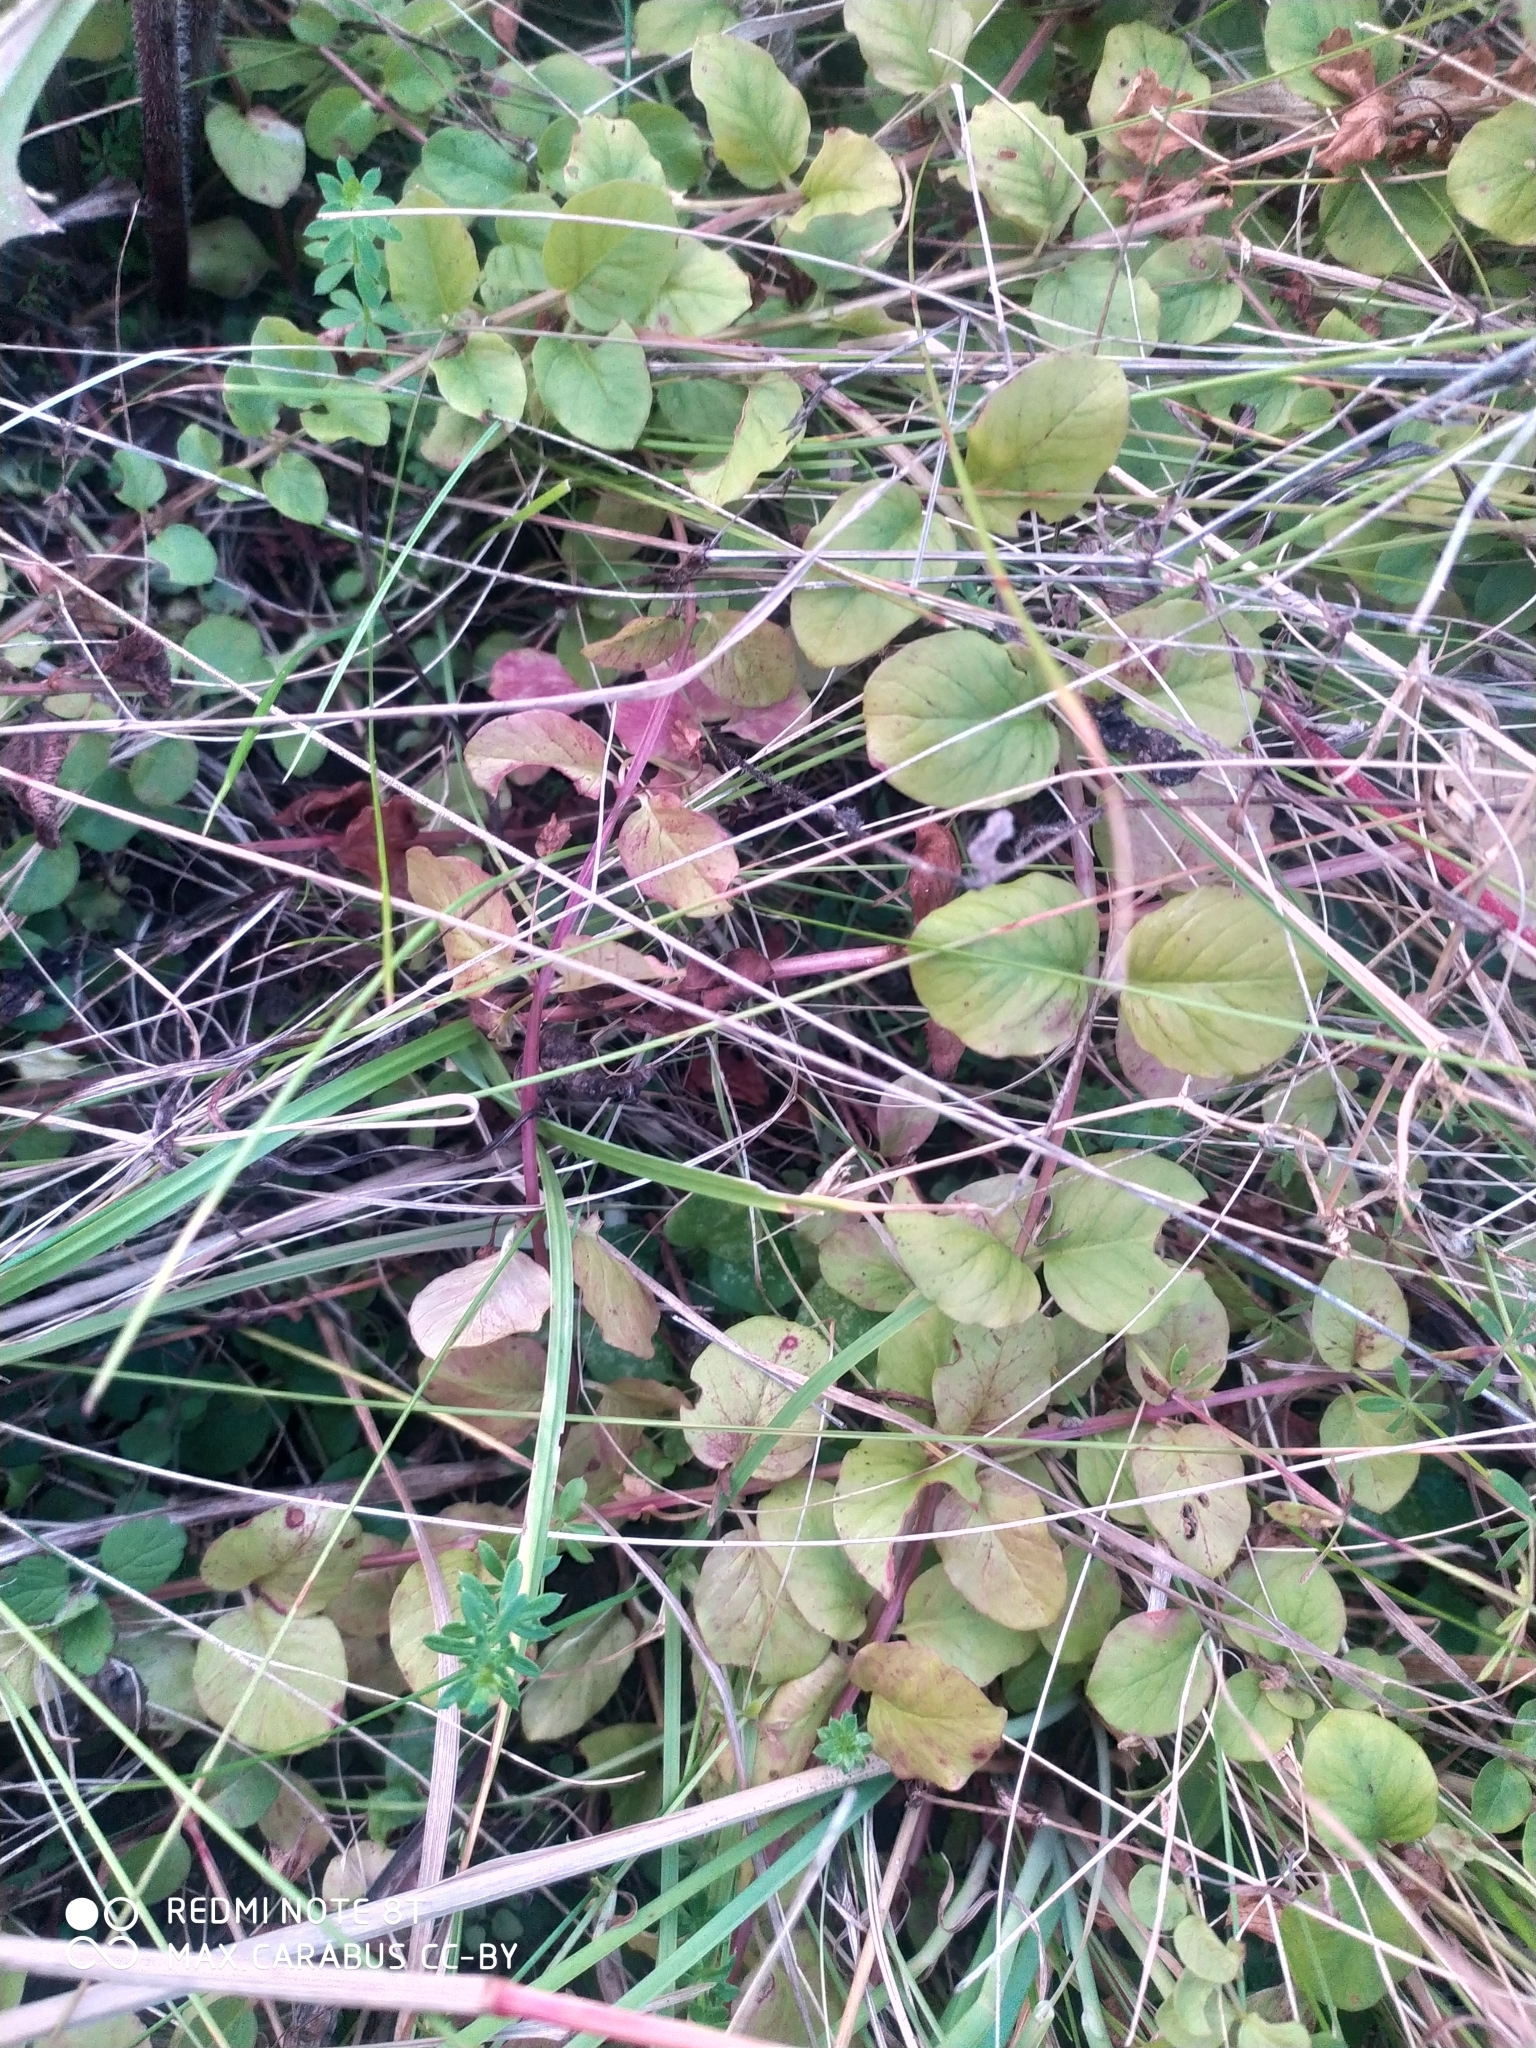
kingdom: Plantae
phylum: Tracheophyta
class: Magnoliopsida
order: Ericales
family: Primulaceae
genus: Lysimachia
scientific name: Lysimachia nummularia
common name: Moneywort
